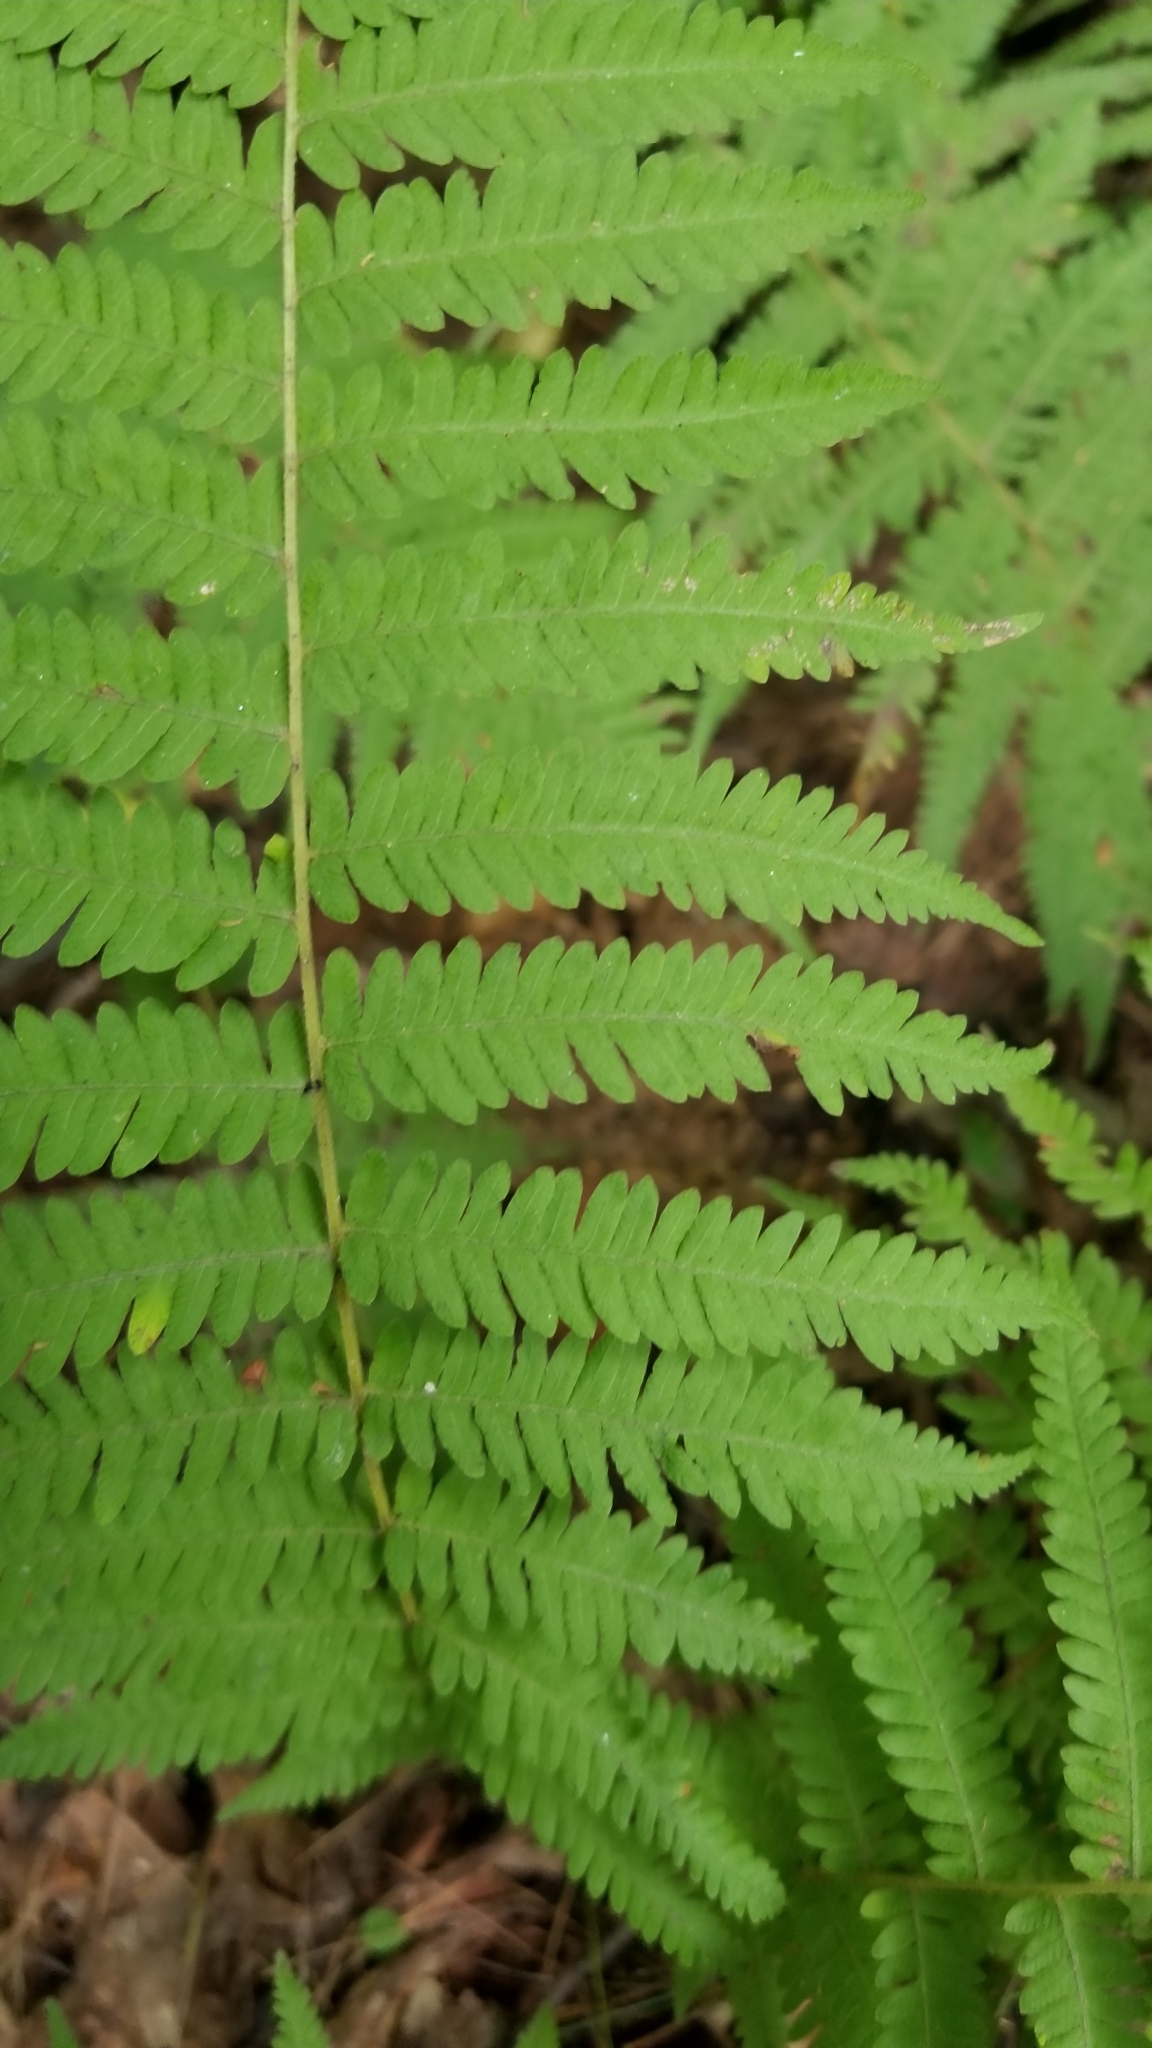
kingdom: Plantae
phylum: Tracheophyta
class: Polypodiopsida
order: Polypodiales
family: Thelypteridaceae
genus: Amauropelta
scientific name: Amauropelta noveboracensis
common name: New york fern
